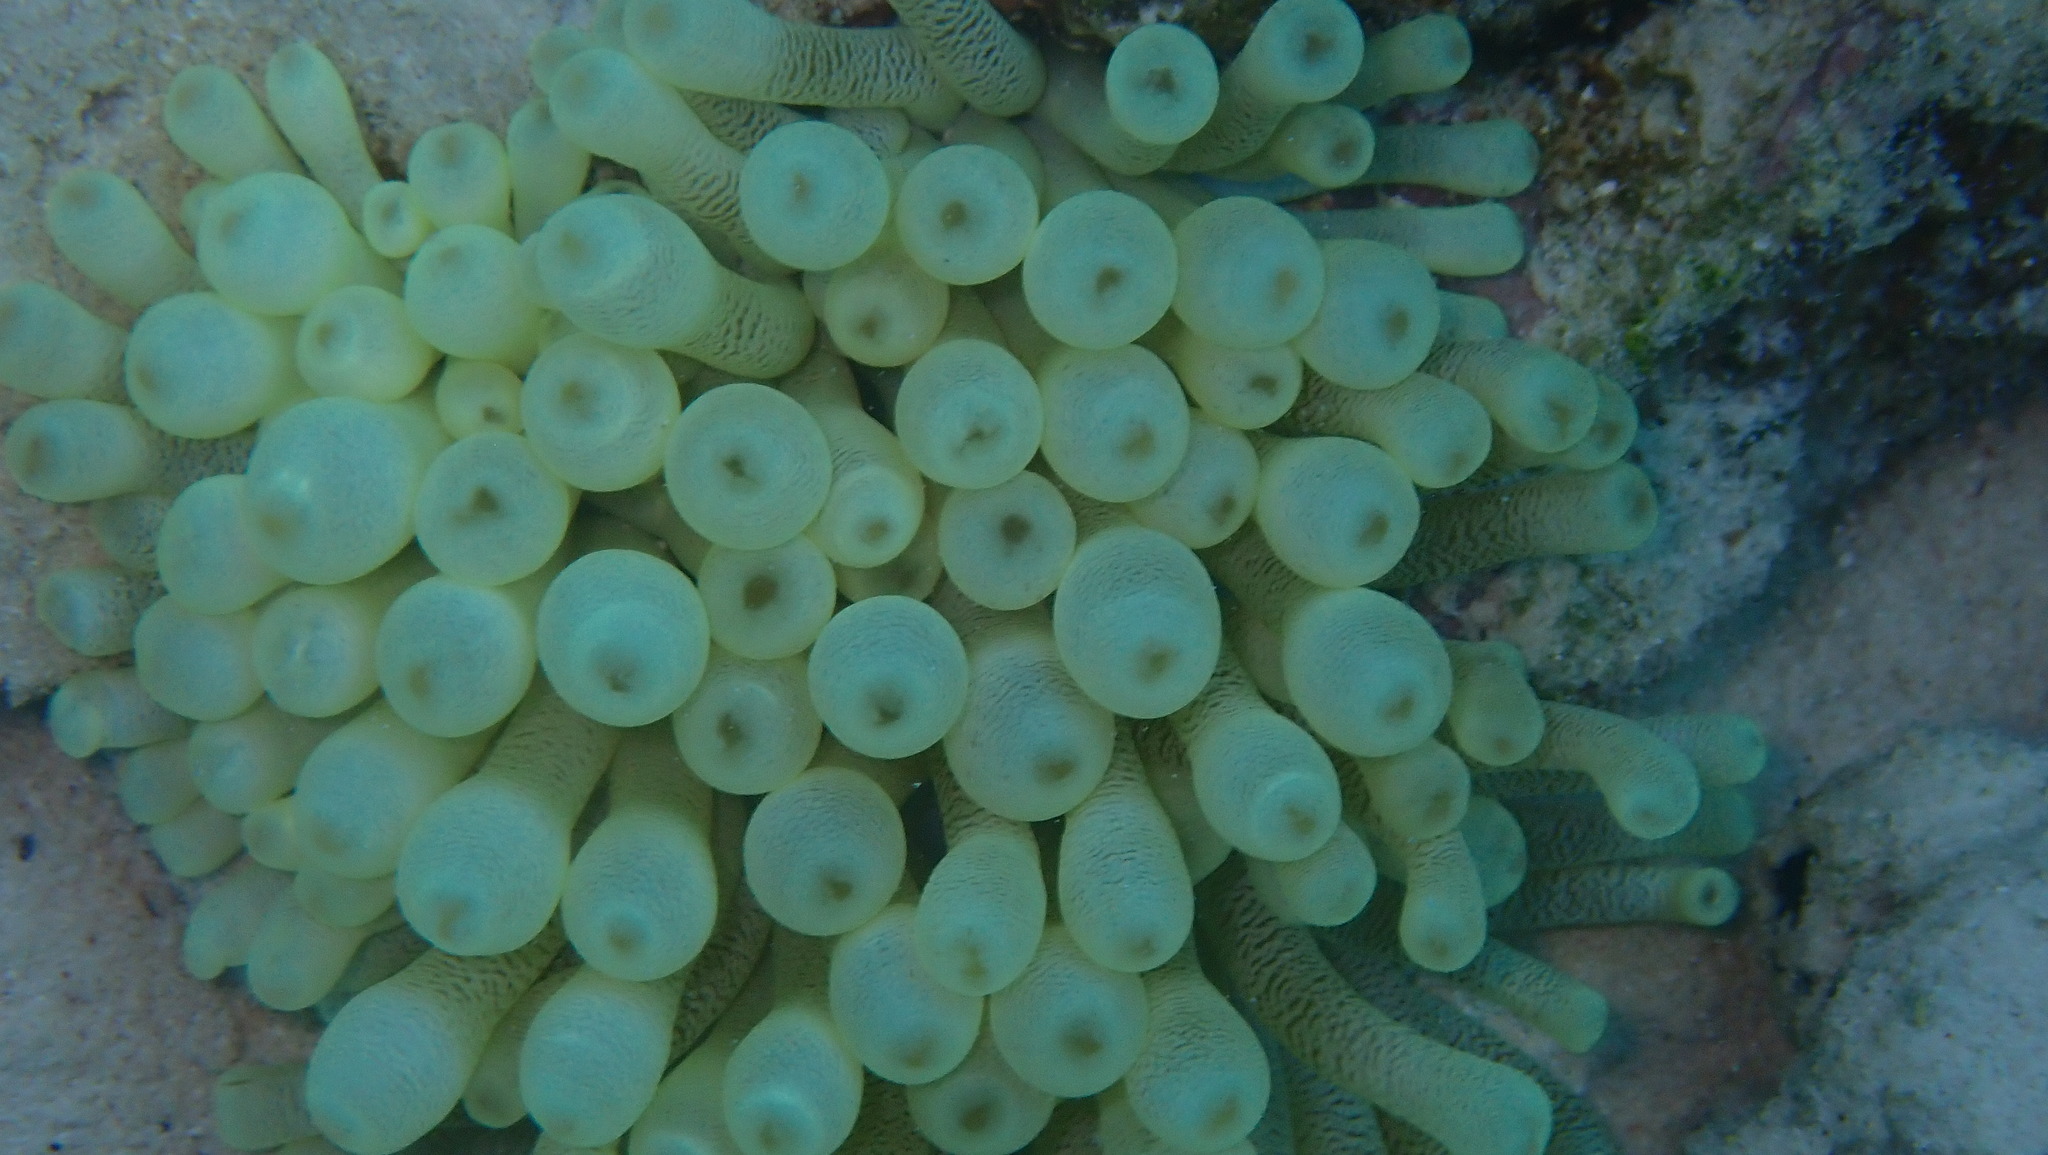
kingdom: Animalia
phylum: Cnidaria
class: Anthozoa
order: Actiniaria
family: Actiniidae
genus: Condylactis
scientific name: Condylactis gigantea
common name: Giant caribbean anemone
